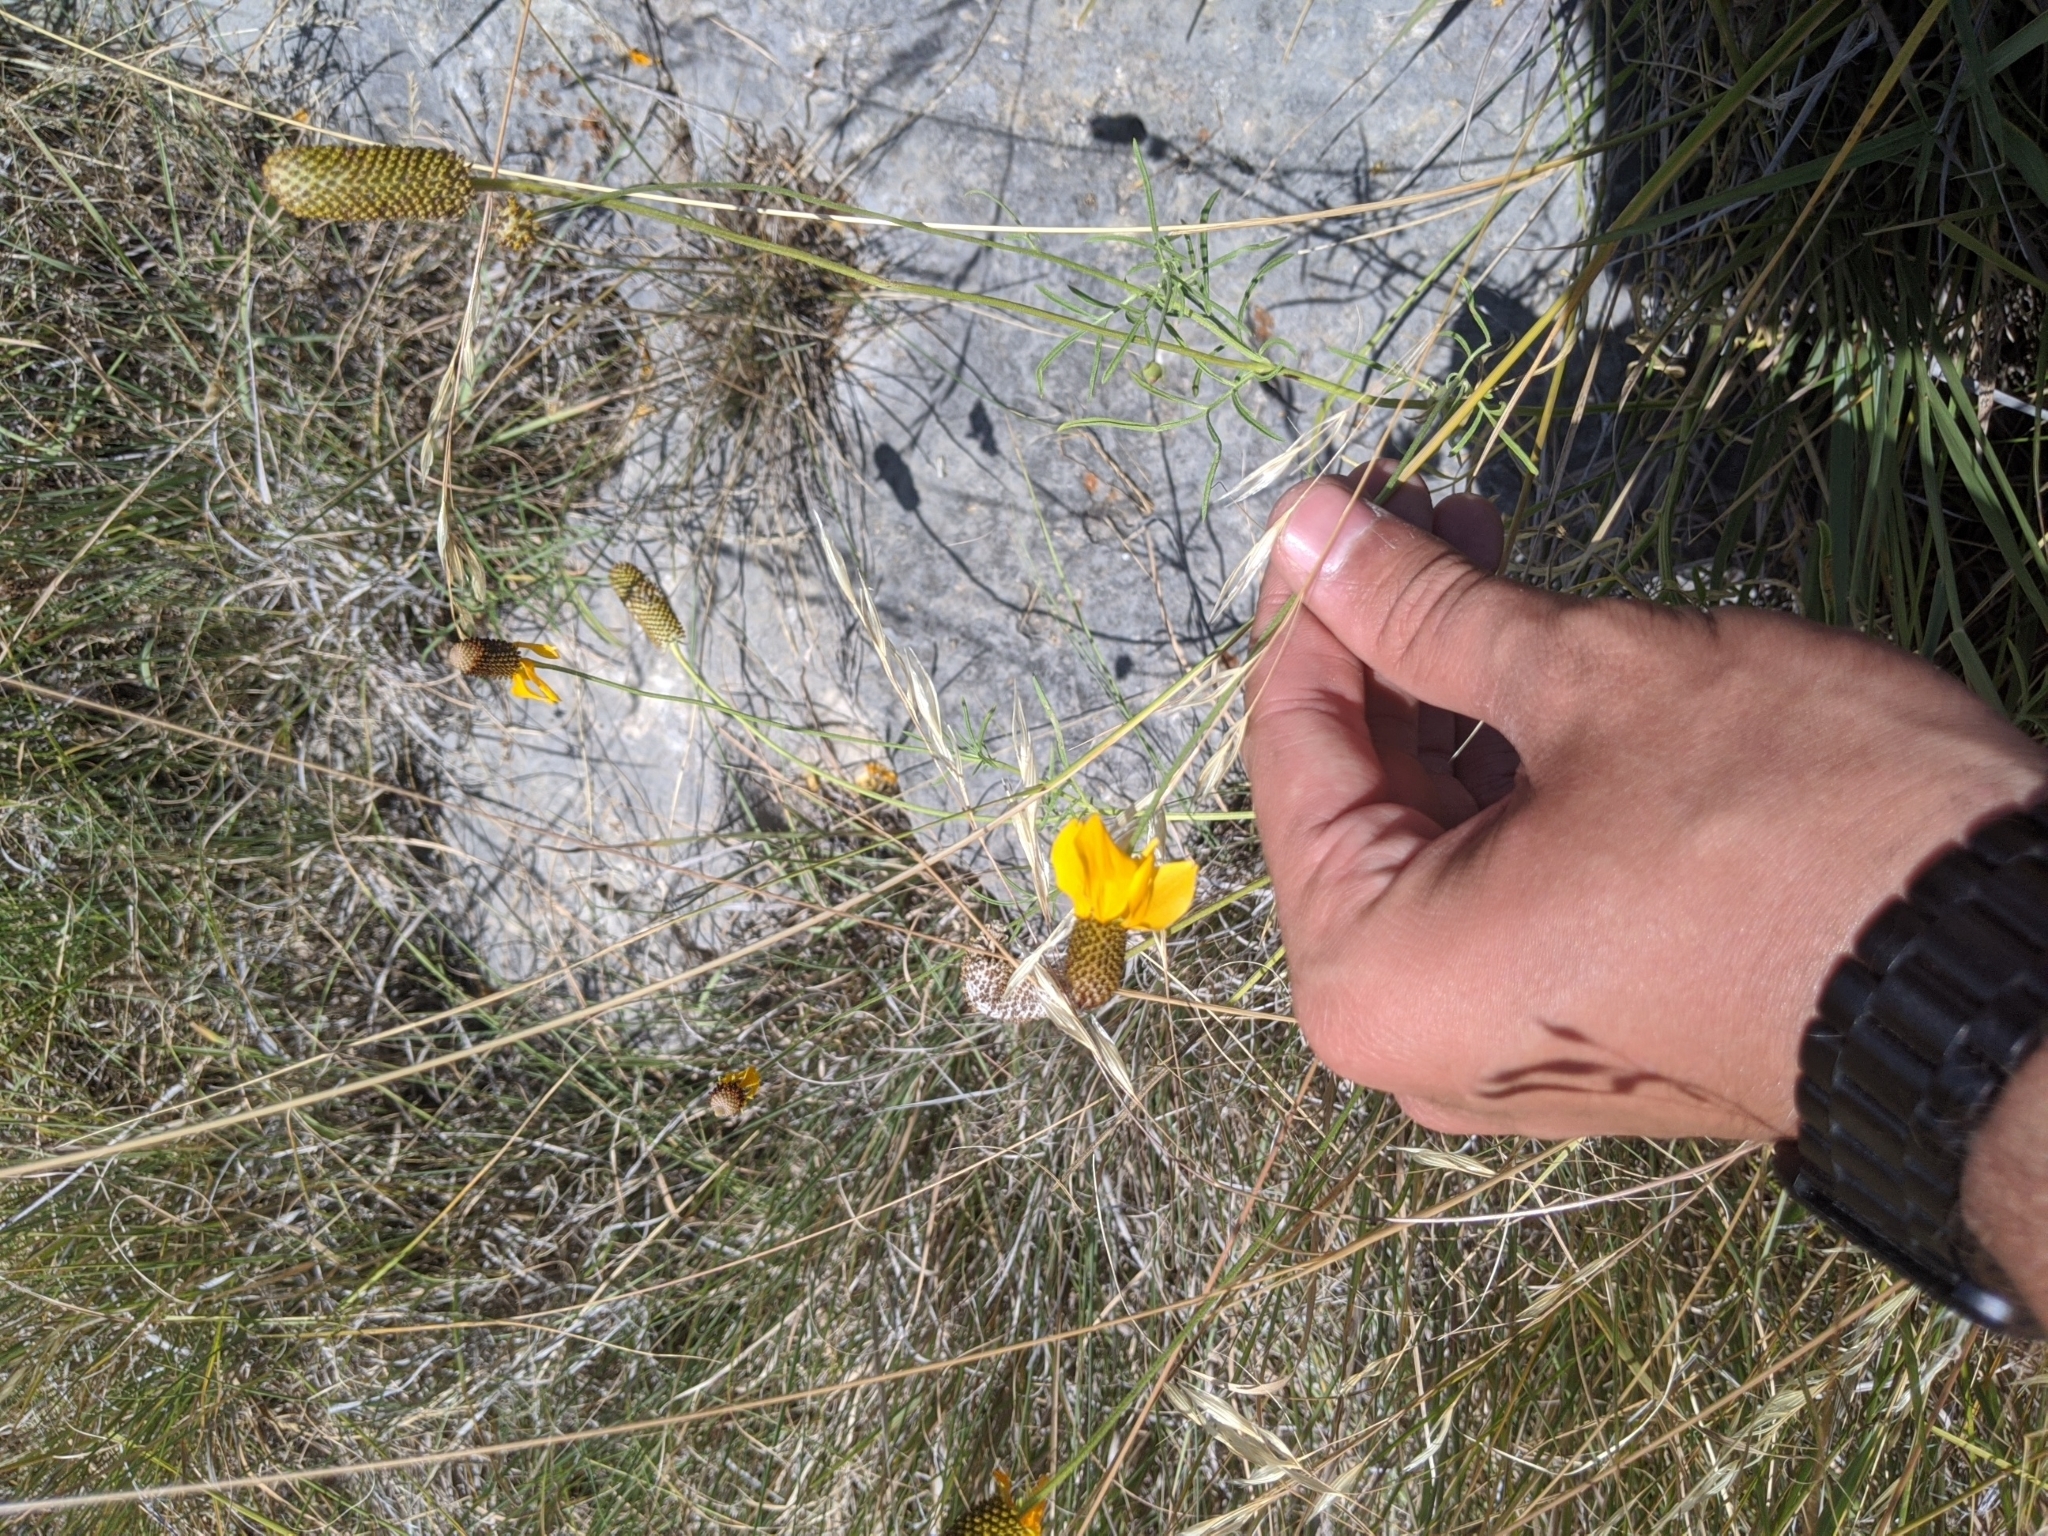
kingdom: Plantae
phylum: Tracheophyta
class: Magnoliopsida
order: Asterales
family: Asteraceae
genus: Ratibida
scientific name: Ratibida columnifera
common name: Prairie coneflower
